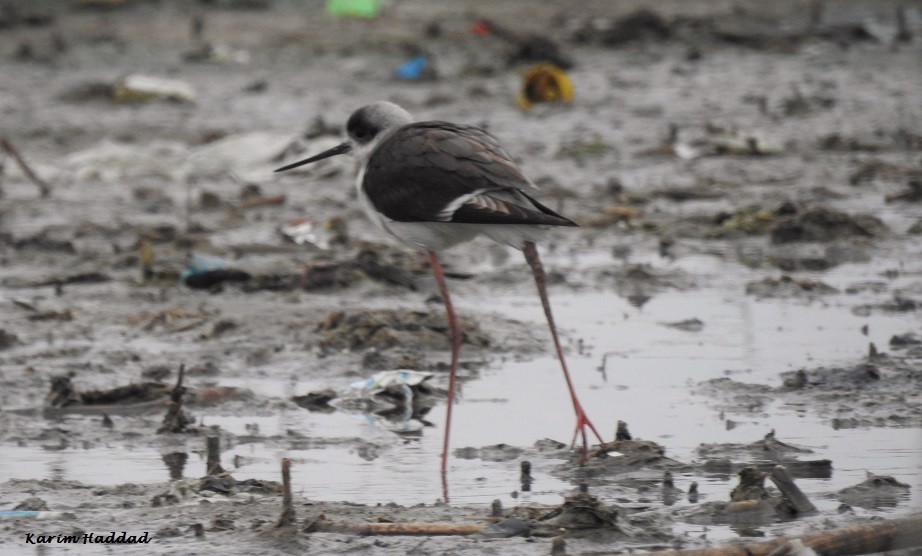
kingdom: Animalia
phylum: Chordata
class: Aves
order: Charadriiformes
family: Recurvirostridae
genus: Himantopus
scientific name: Himantopus himantopus
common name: Black-winged stilt
